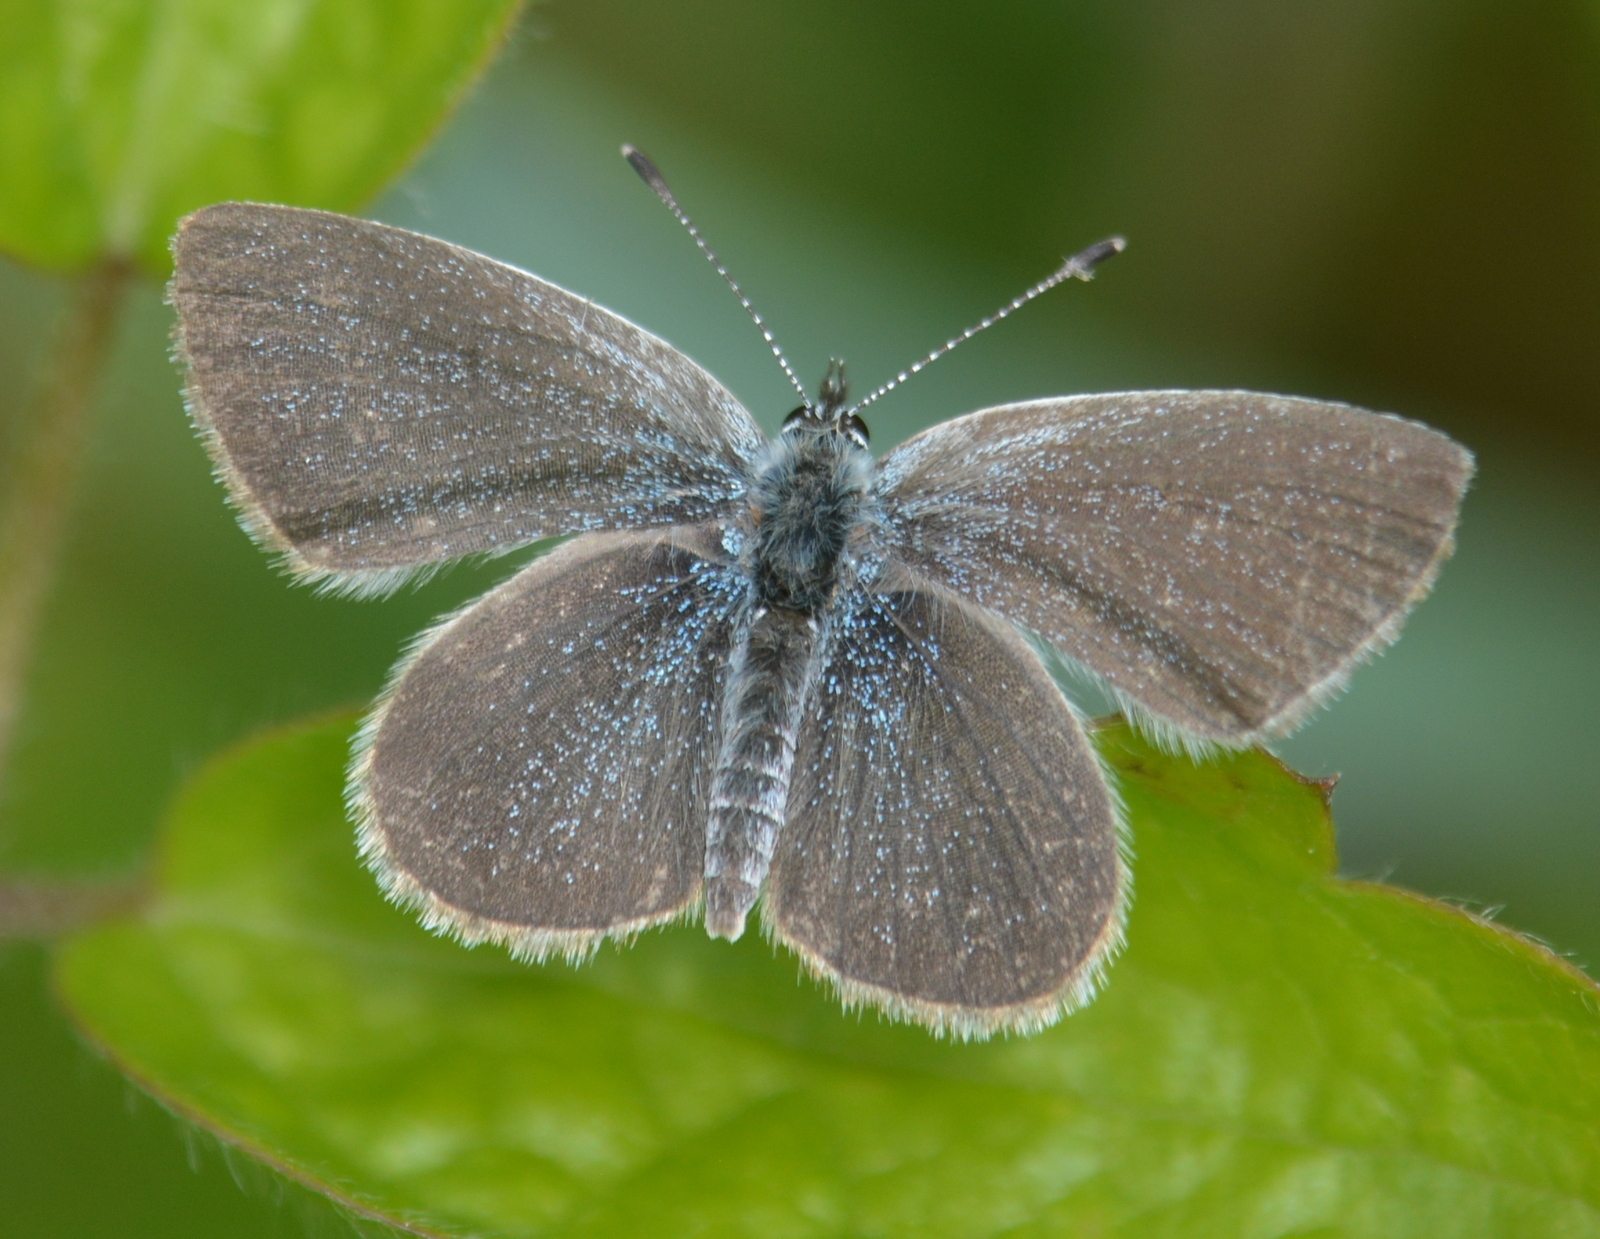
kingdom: Animalia
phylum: Arthropoda
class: Insecta
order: Lepidoptera
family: Lycaenidae
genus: Cupido
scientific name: Cupido minimus
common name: Small blue
